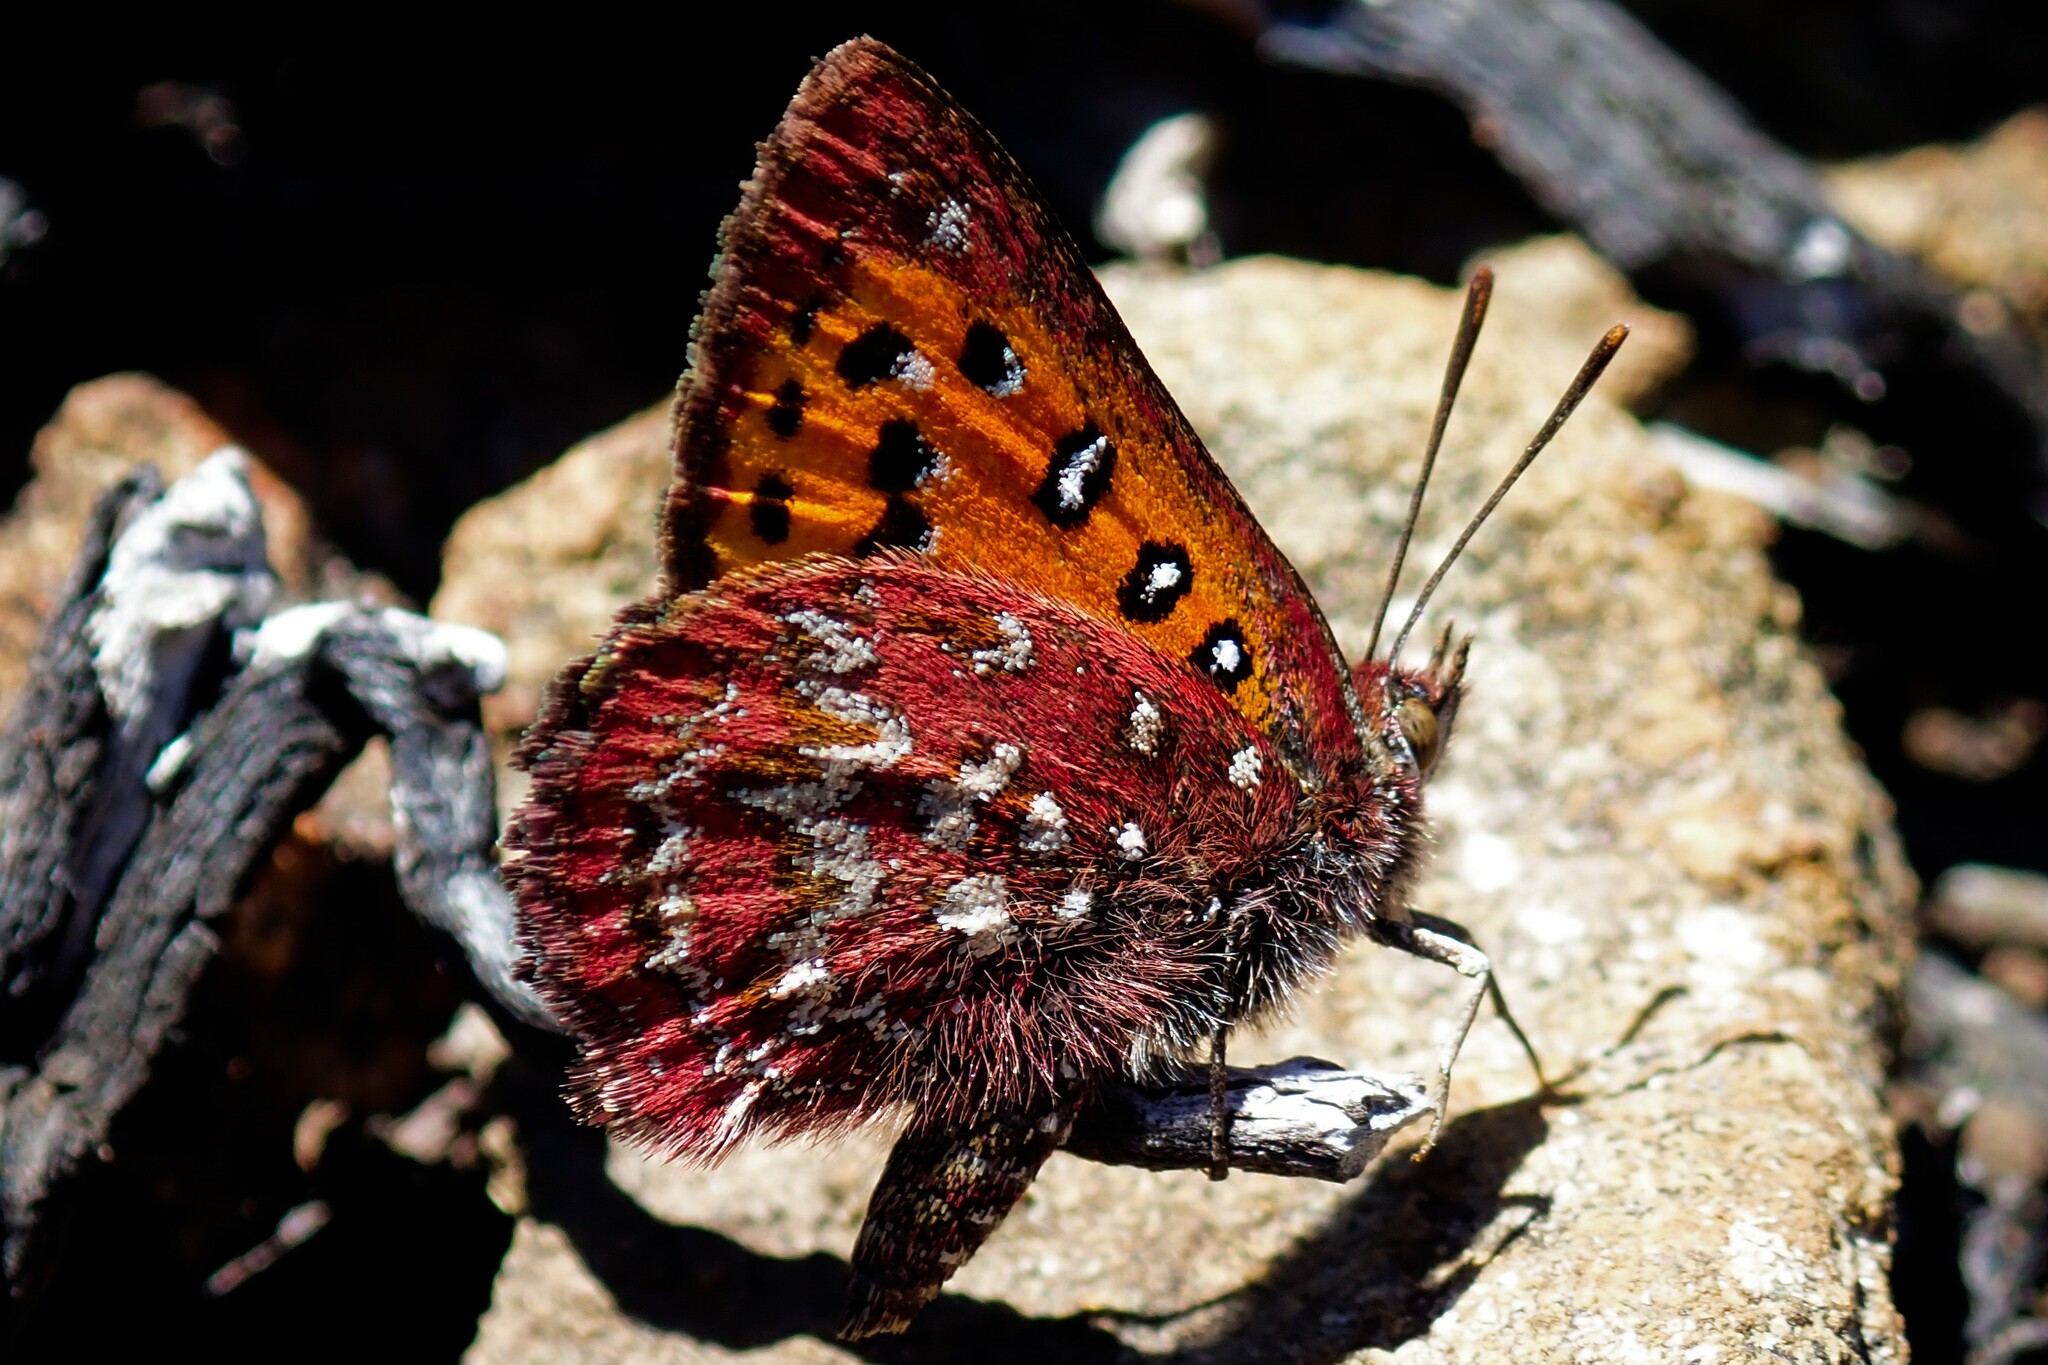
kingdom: Animalia
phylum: Arthropoda
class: Insecta
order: Lepidoptera
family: Lycaenidae
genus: Aloeides
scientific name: Aloeides dryas
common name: Transvaal copper
